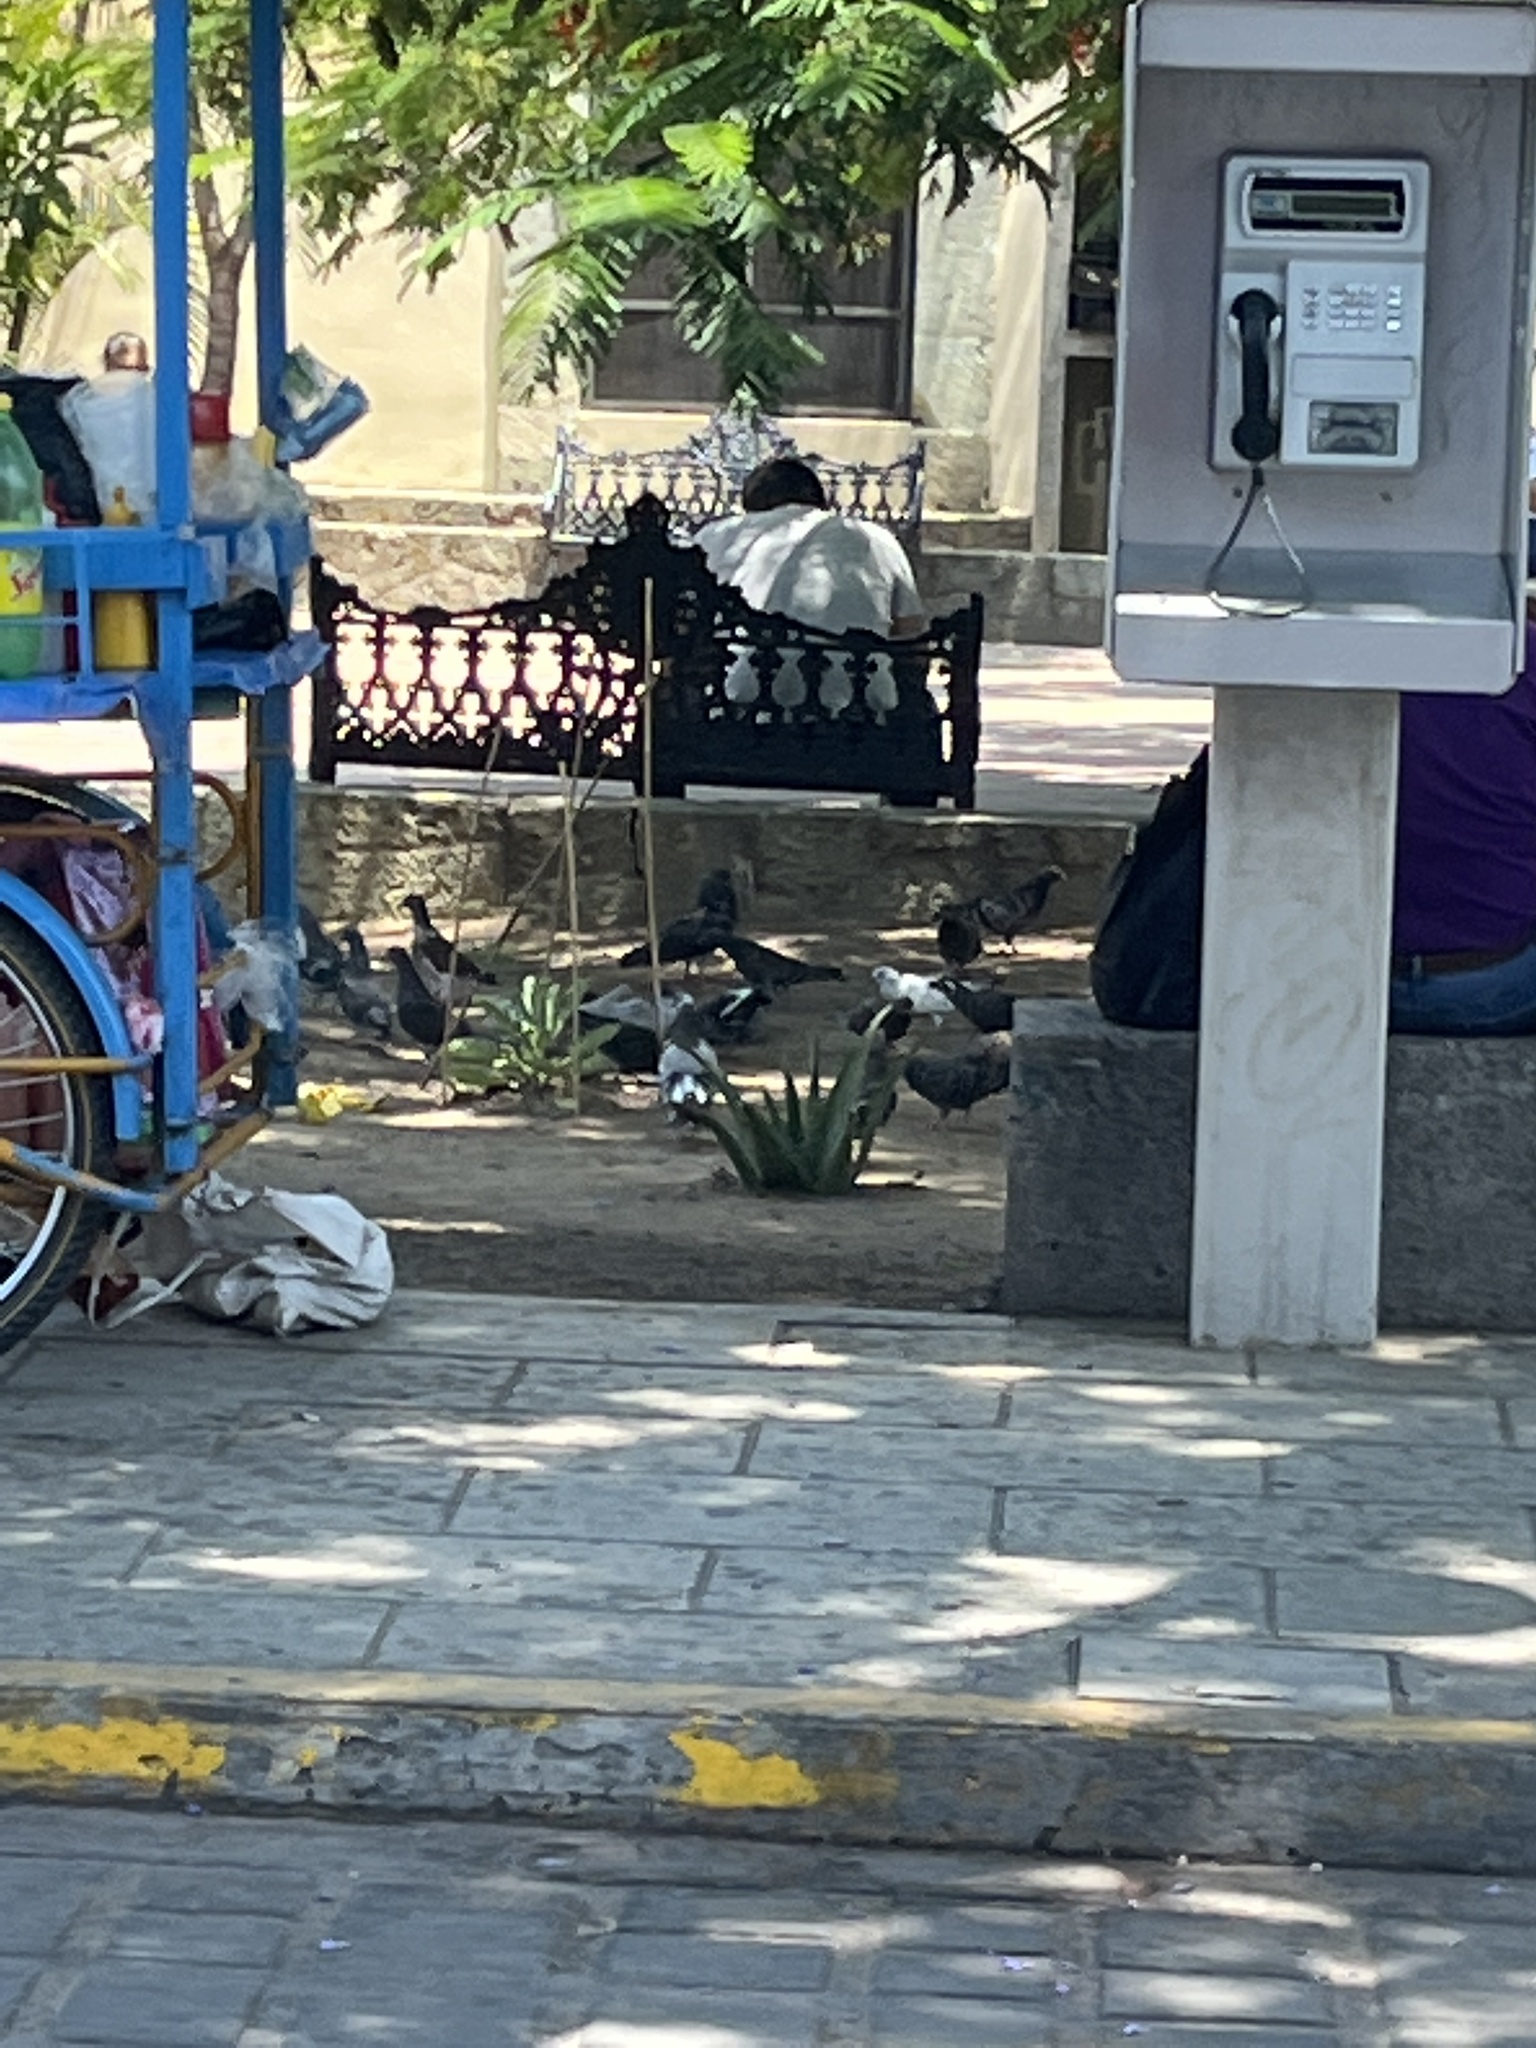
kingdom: Animalia
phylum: Chordata
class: Aves
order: Columbiformes
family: Columbidae
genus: Columba
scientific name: Columba livia
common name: Rock pigeon
